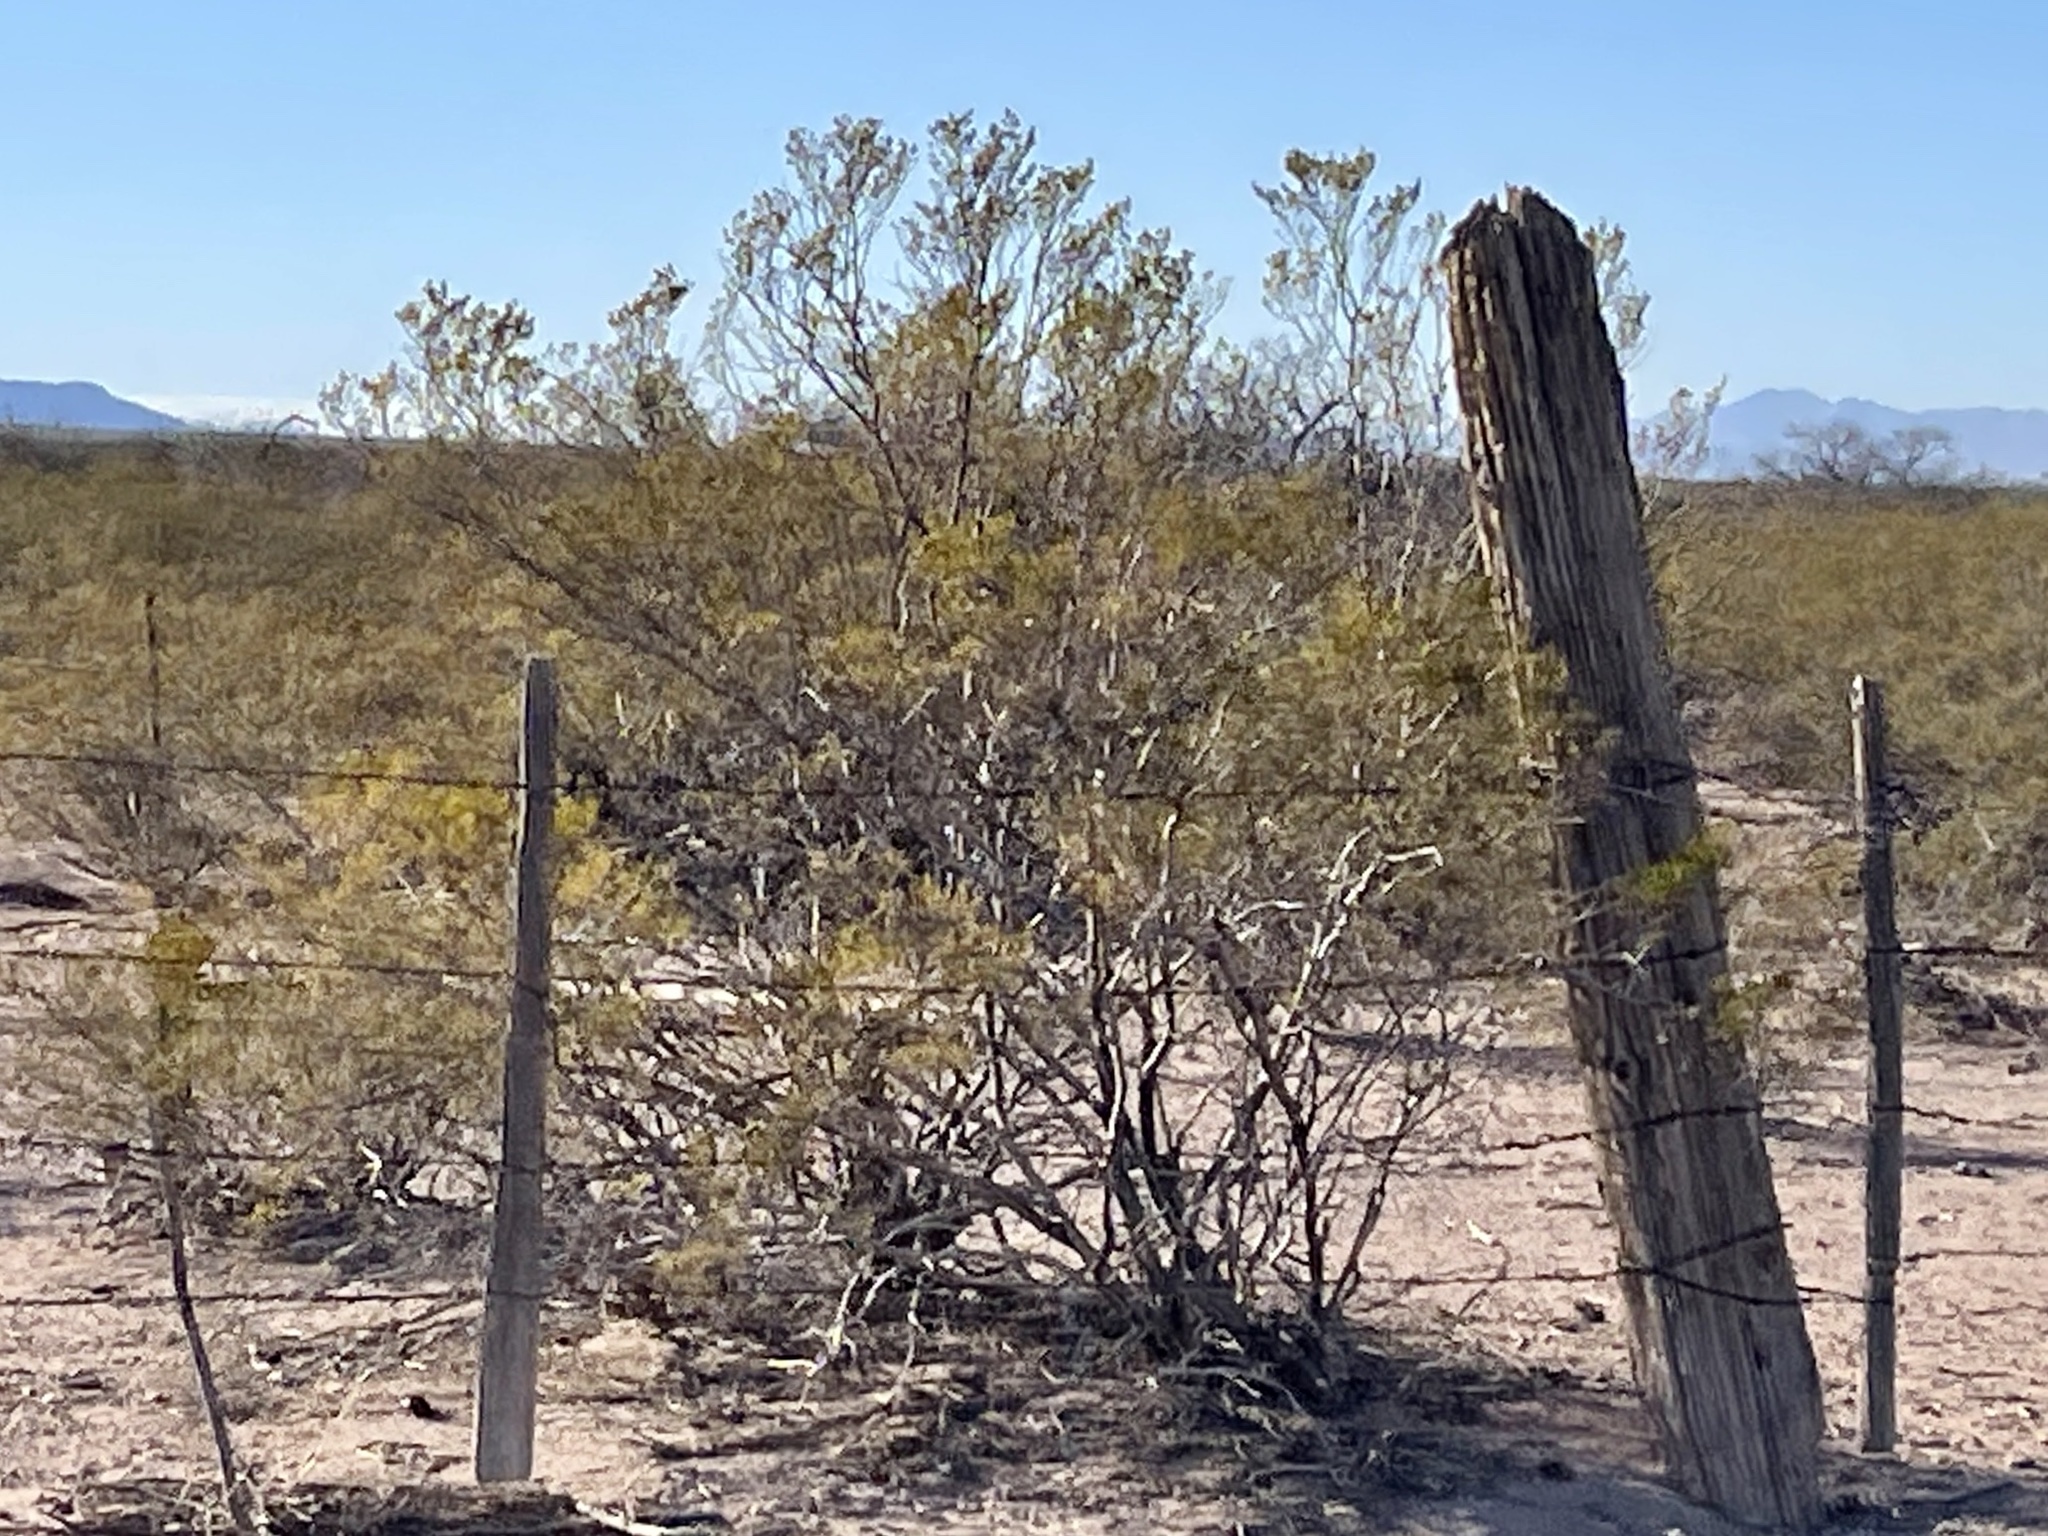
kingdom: Plantae
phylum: Tracheophyta
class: Magnoliopsida
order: Zygophyllales
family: Zygophyllaceae
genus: Larrea
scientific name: Larrea tridentata
